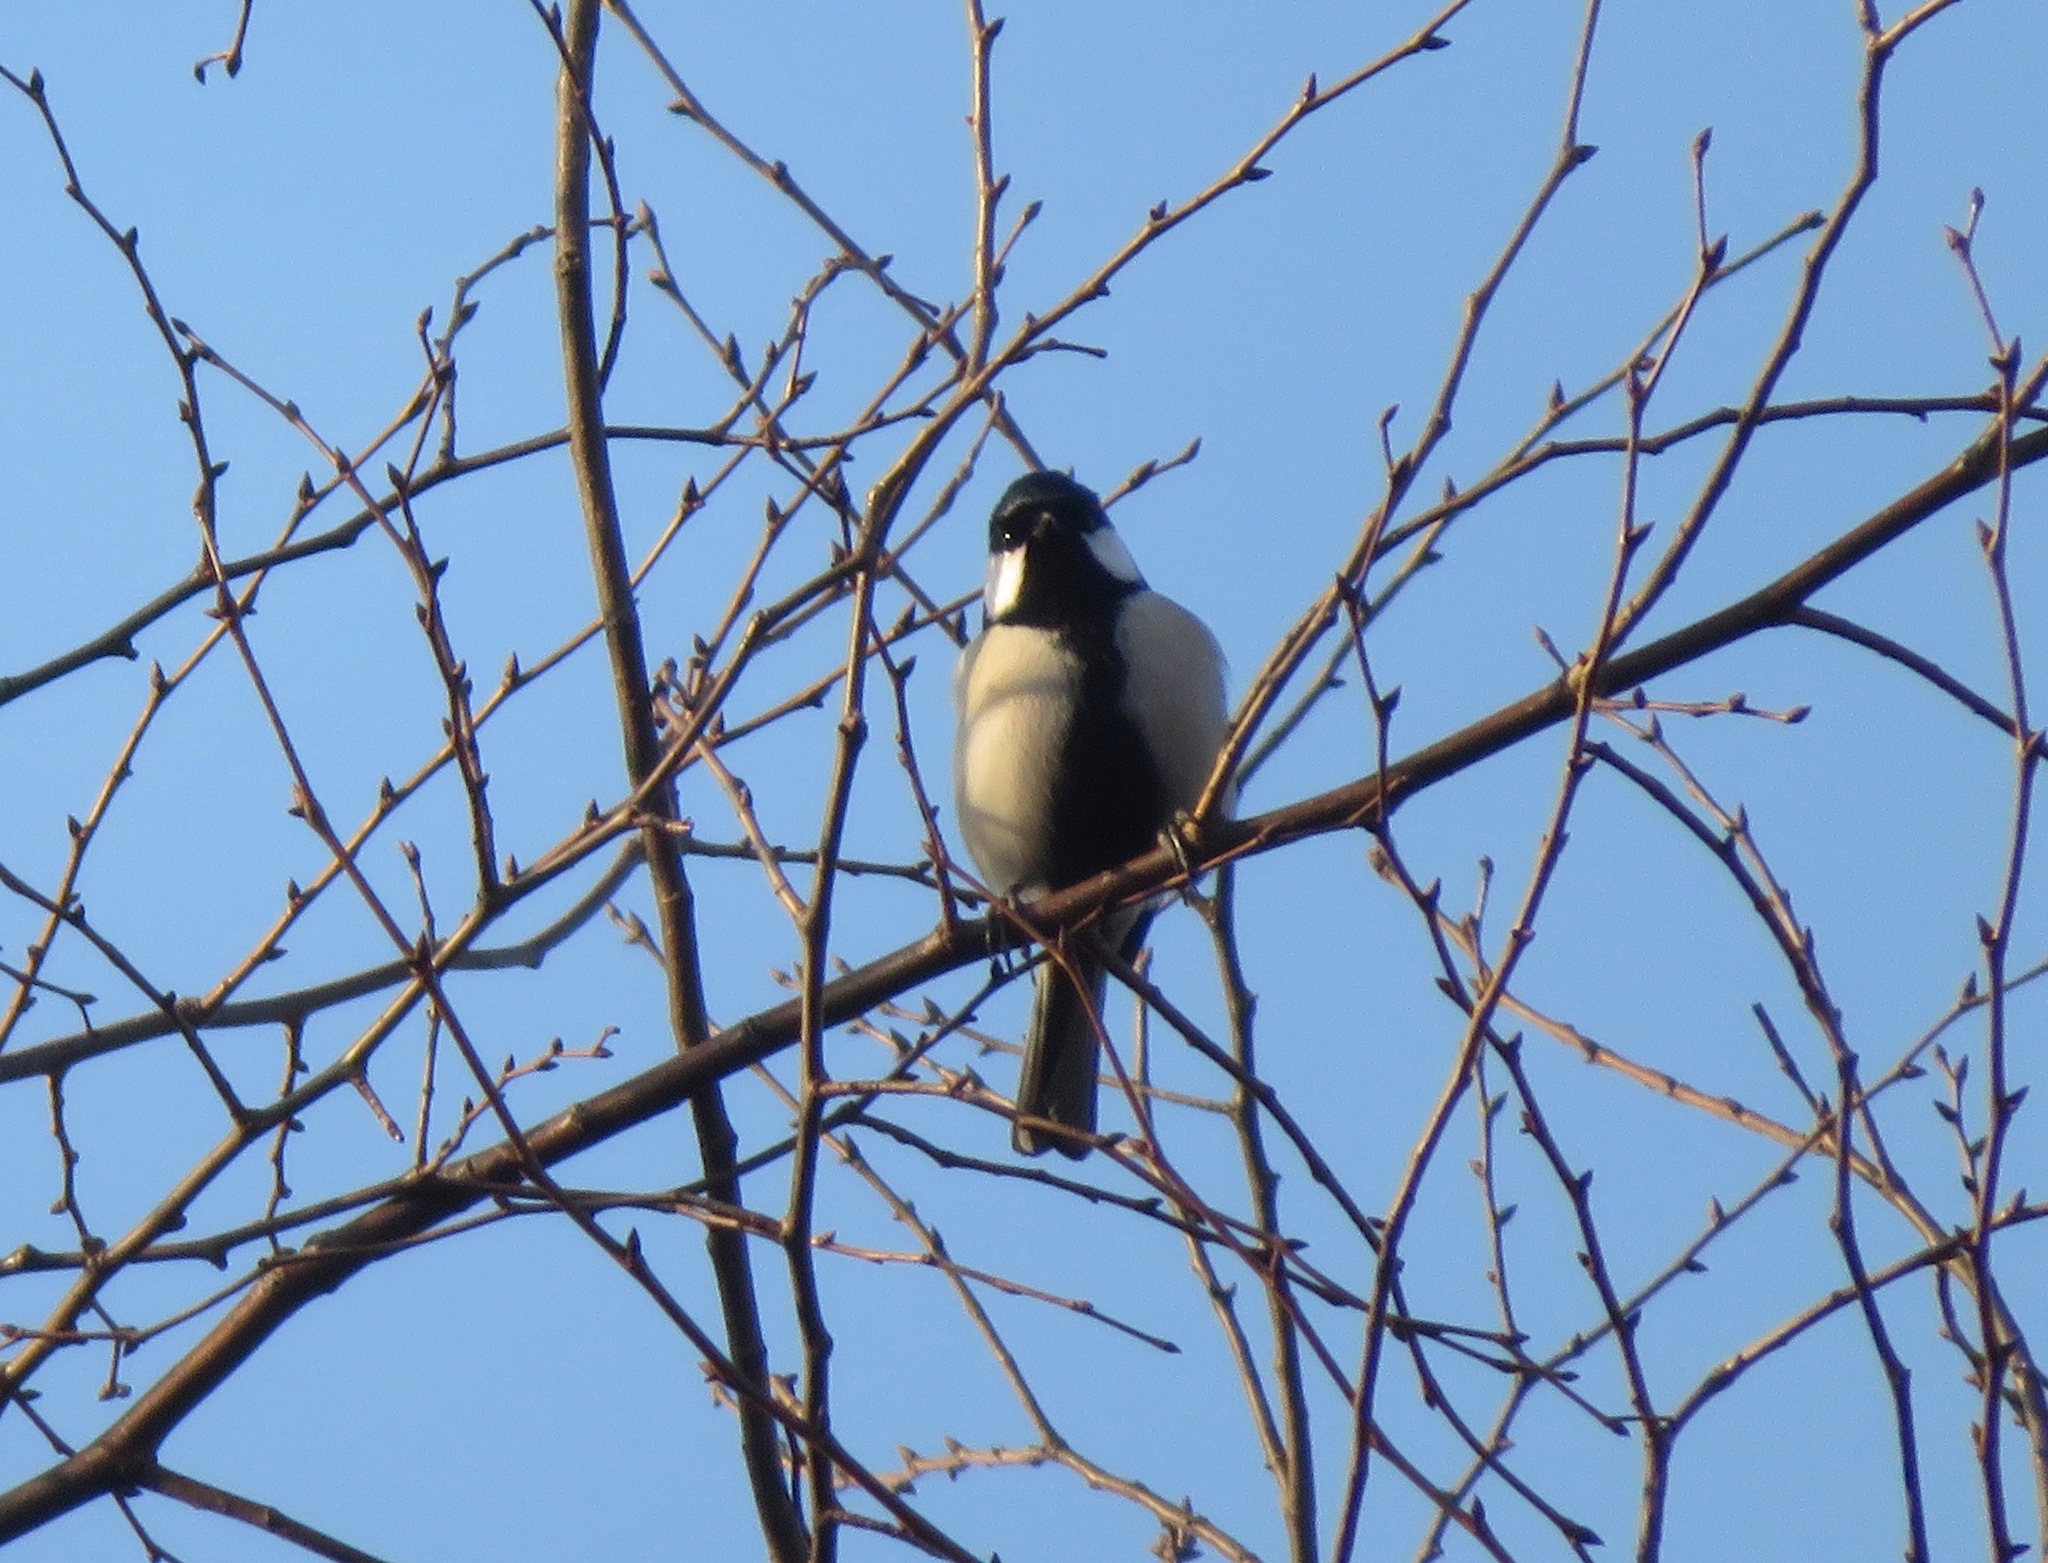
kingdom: Animalia
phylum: Chordata
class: Aves
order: Passeriformes
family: Paridae
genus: Parus
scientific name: Parus minor
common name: Japanese tit
